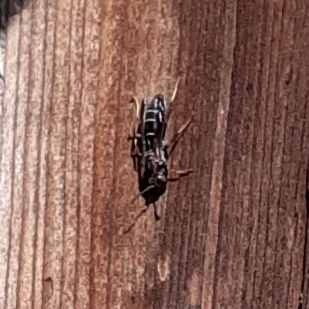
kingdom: Animalia
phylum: Arthropoda
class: Insecta
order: Hymenoptera
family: Eumenidae
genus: Polistes
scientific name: Polistes fuscatus
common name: Dark paper wasp
